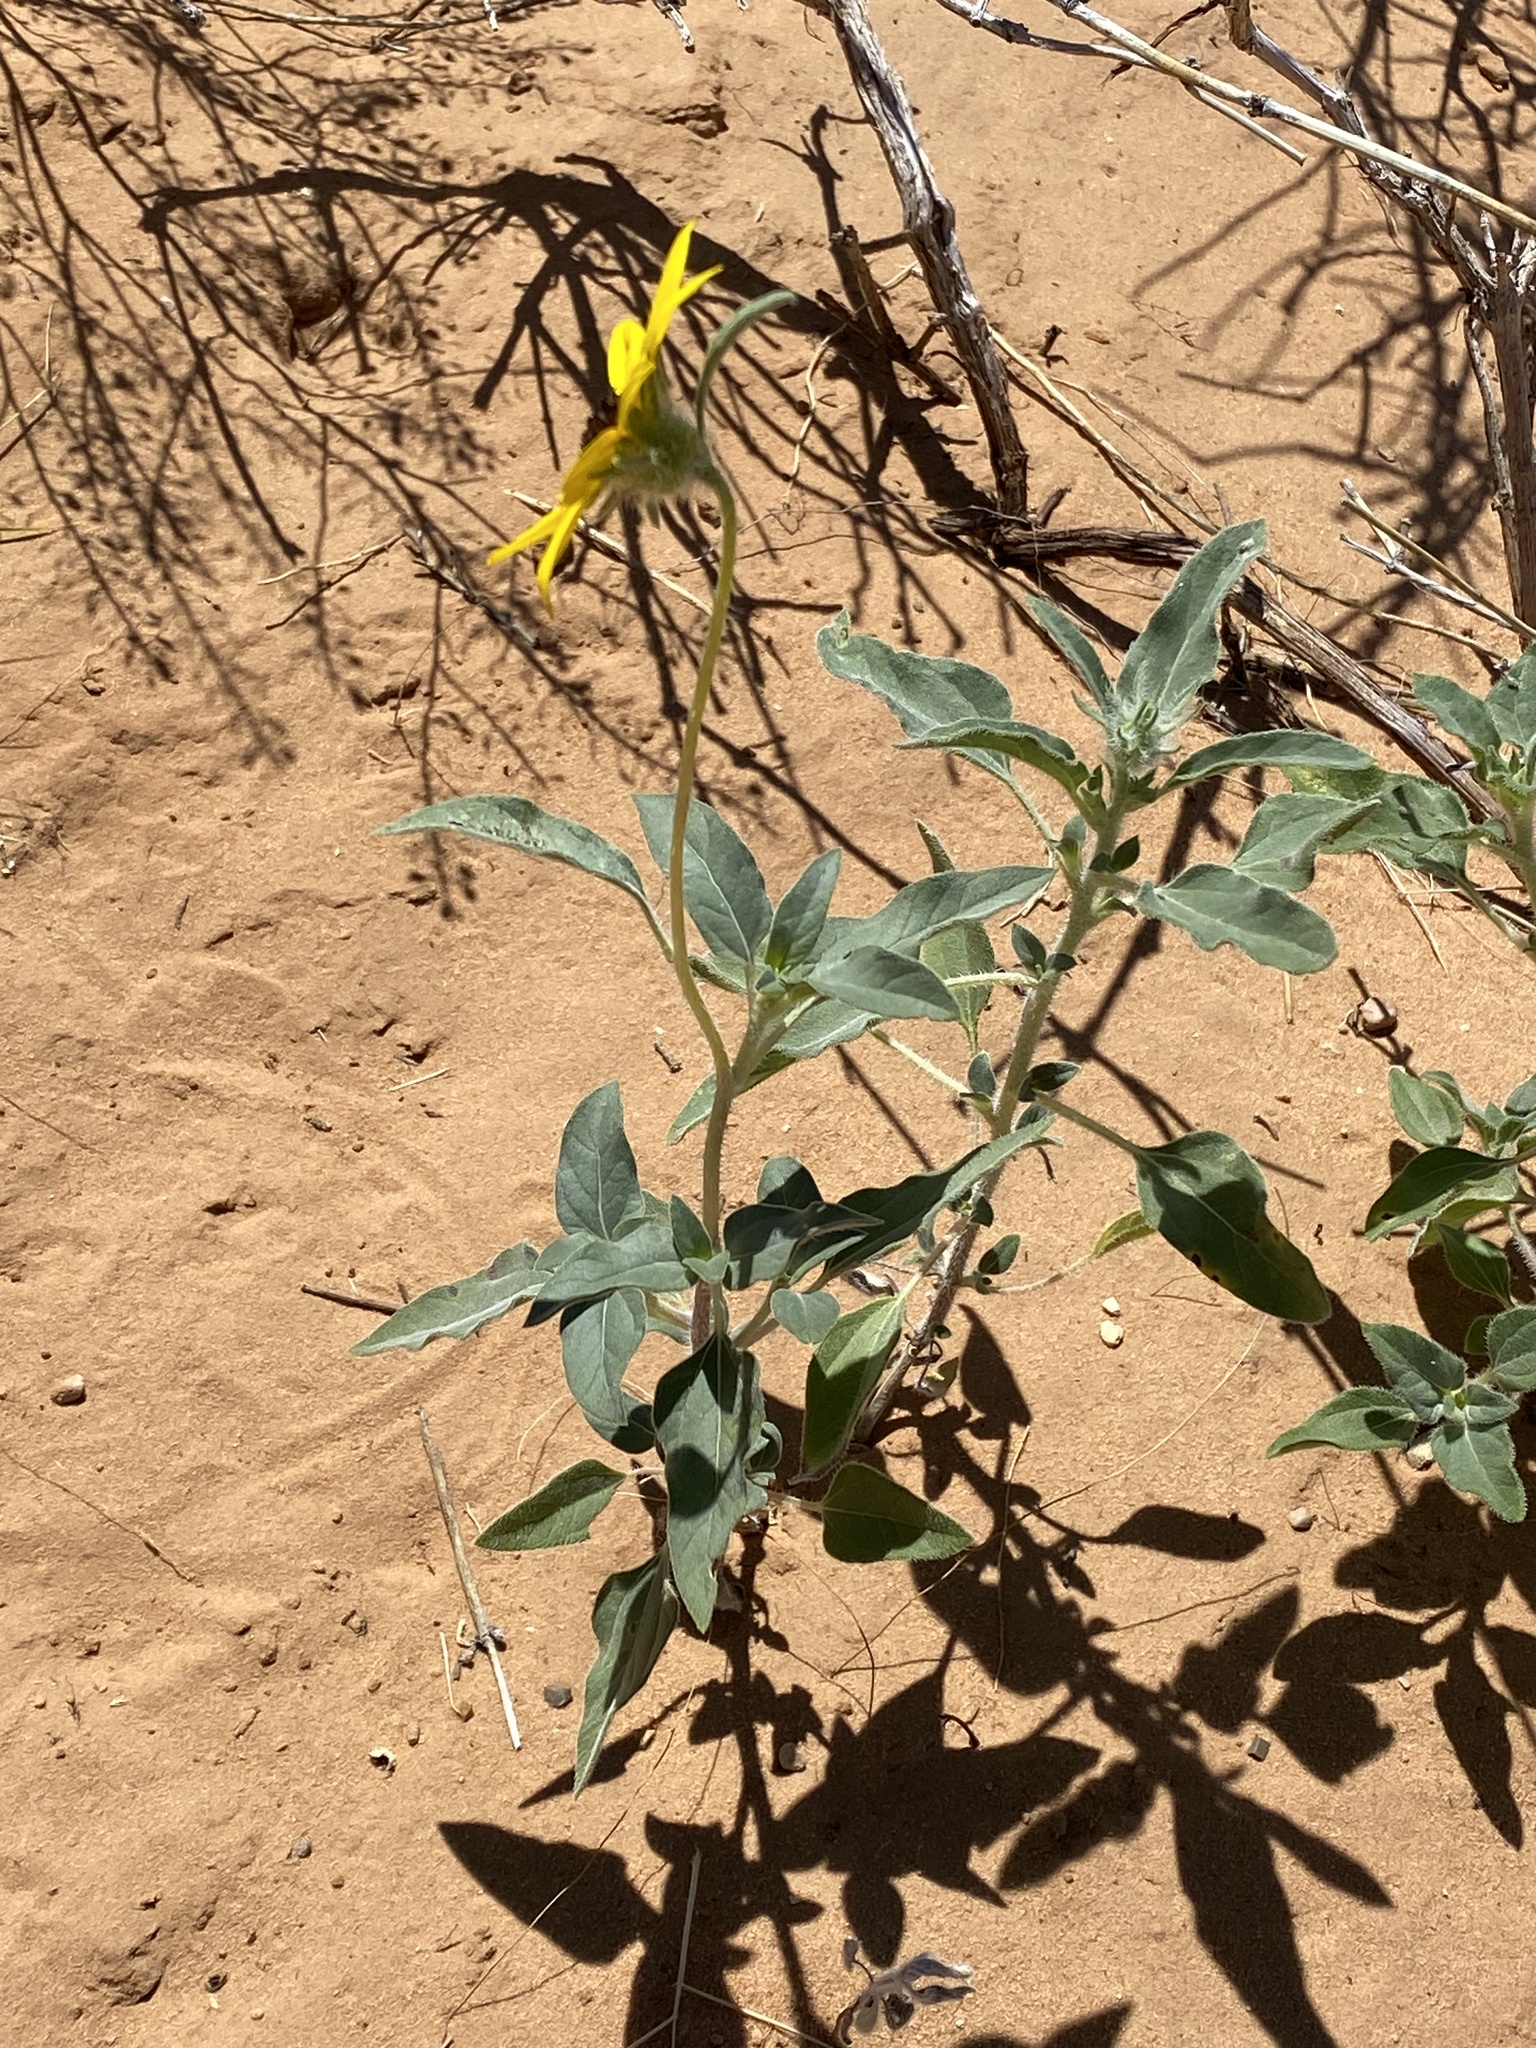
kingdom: Plantae
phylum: Tracheophyta
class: Magnoliopsida
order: Asterales
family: Asteraceae
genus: Helianthus
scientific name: Helianthus deserticola
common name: Desert sunflower
